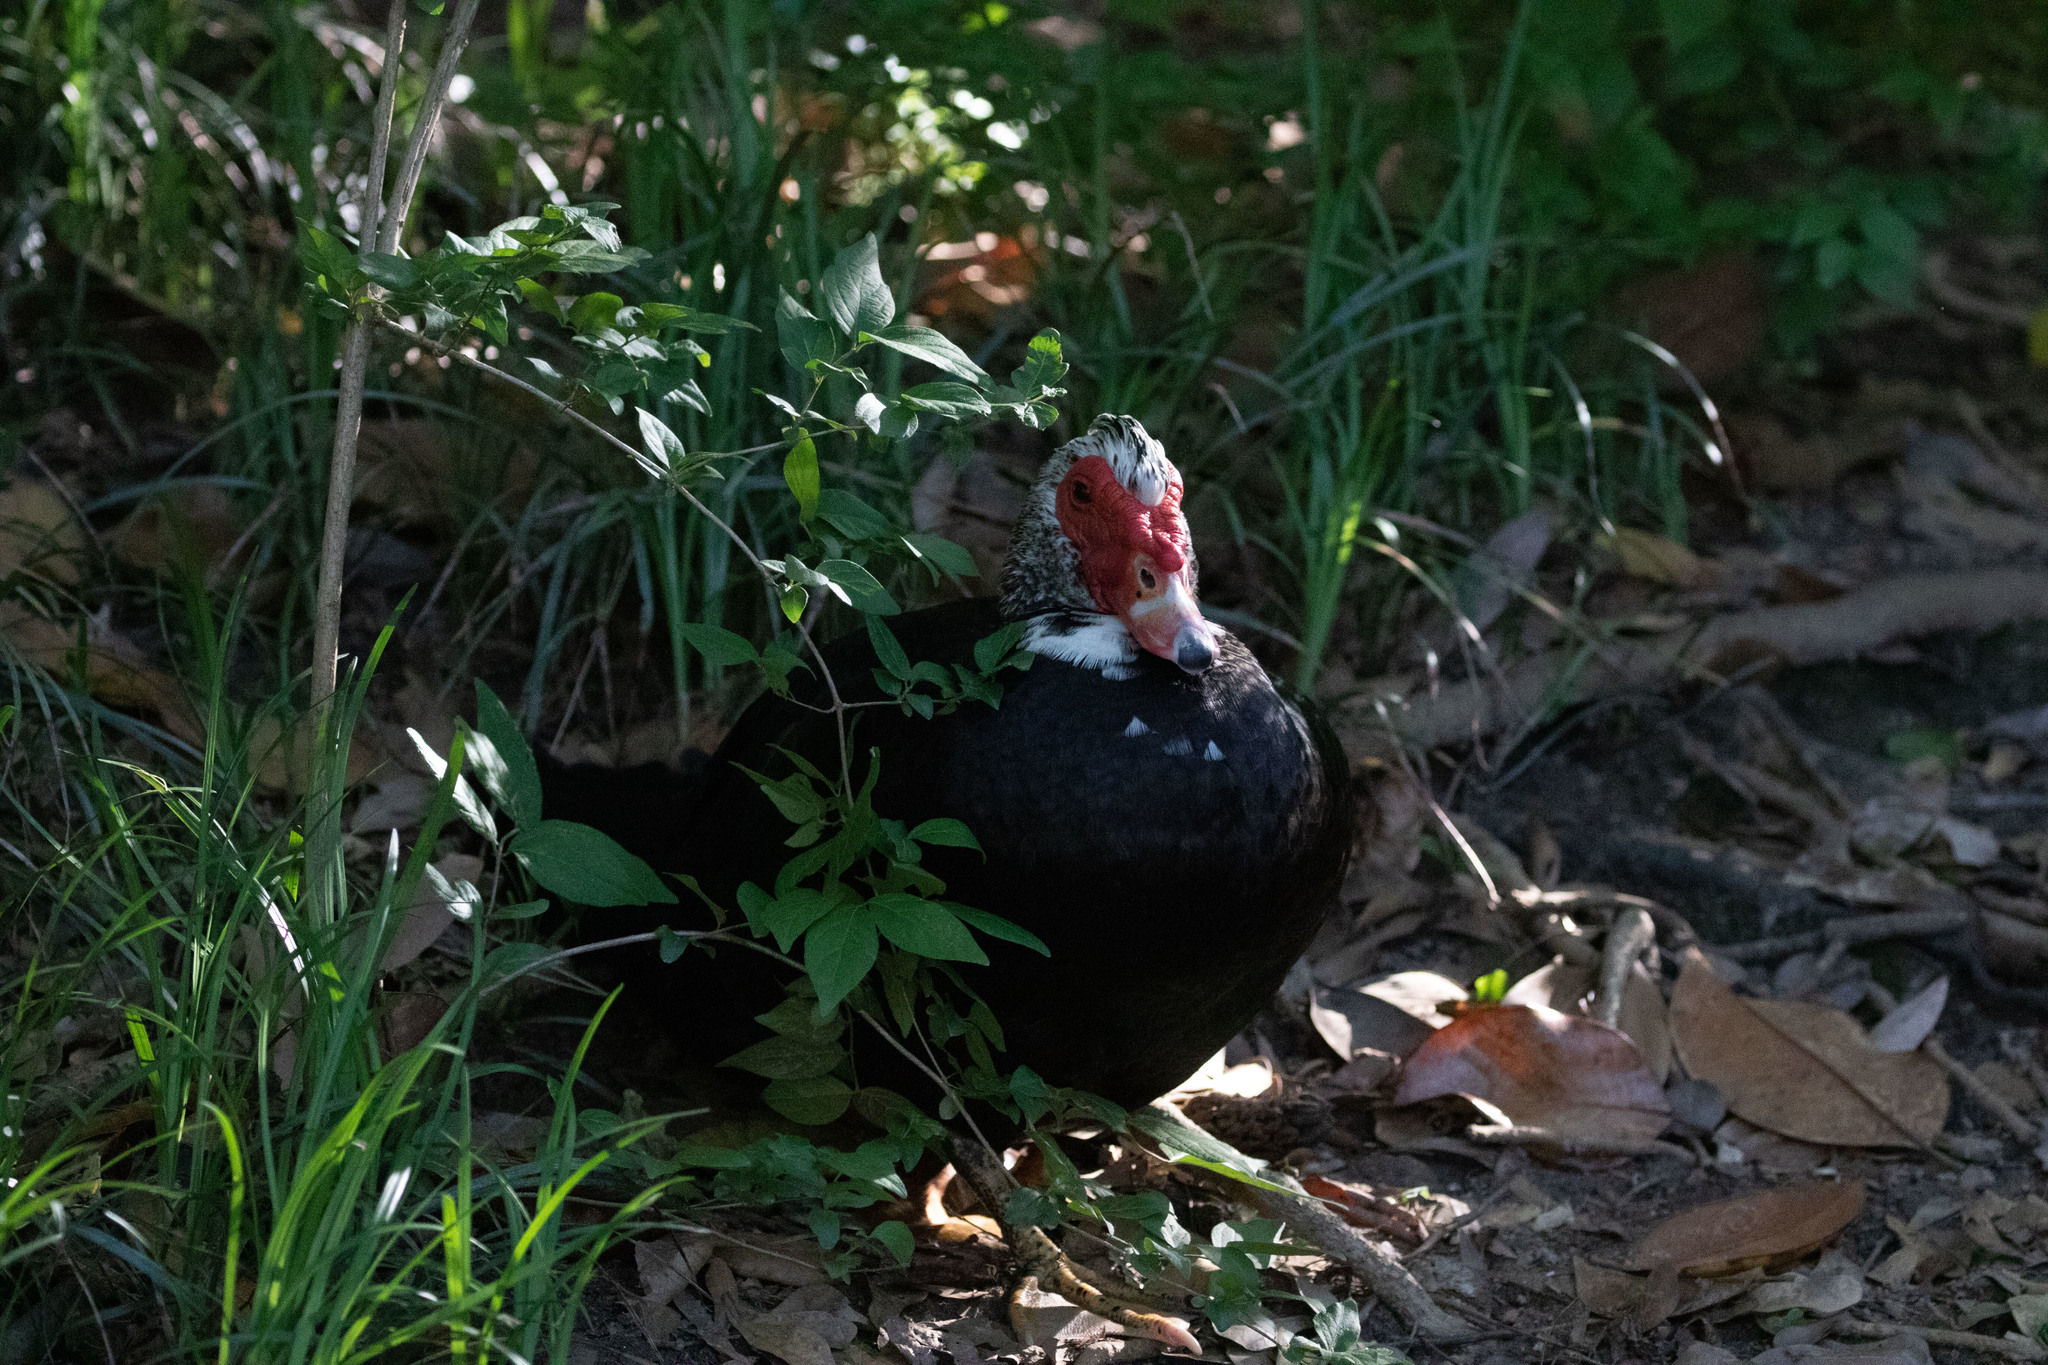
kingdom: Animalia
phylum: Chordata
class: Aves
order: Anseriformes
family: Anatidae
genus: Cairina
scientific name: Cairina moschata
